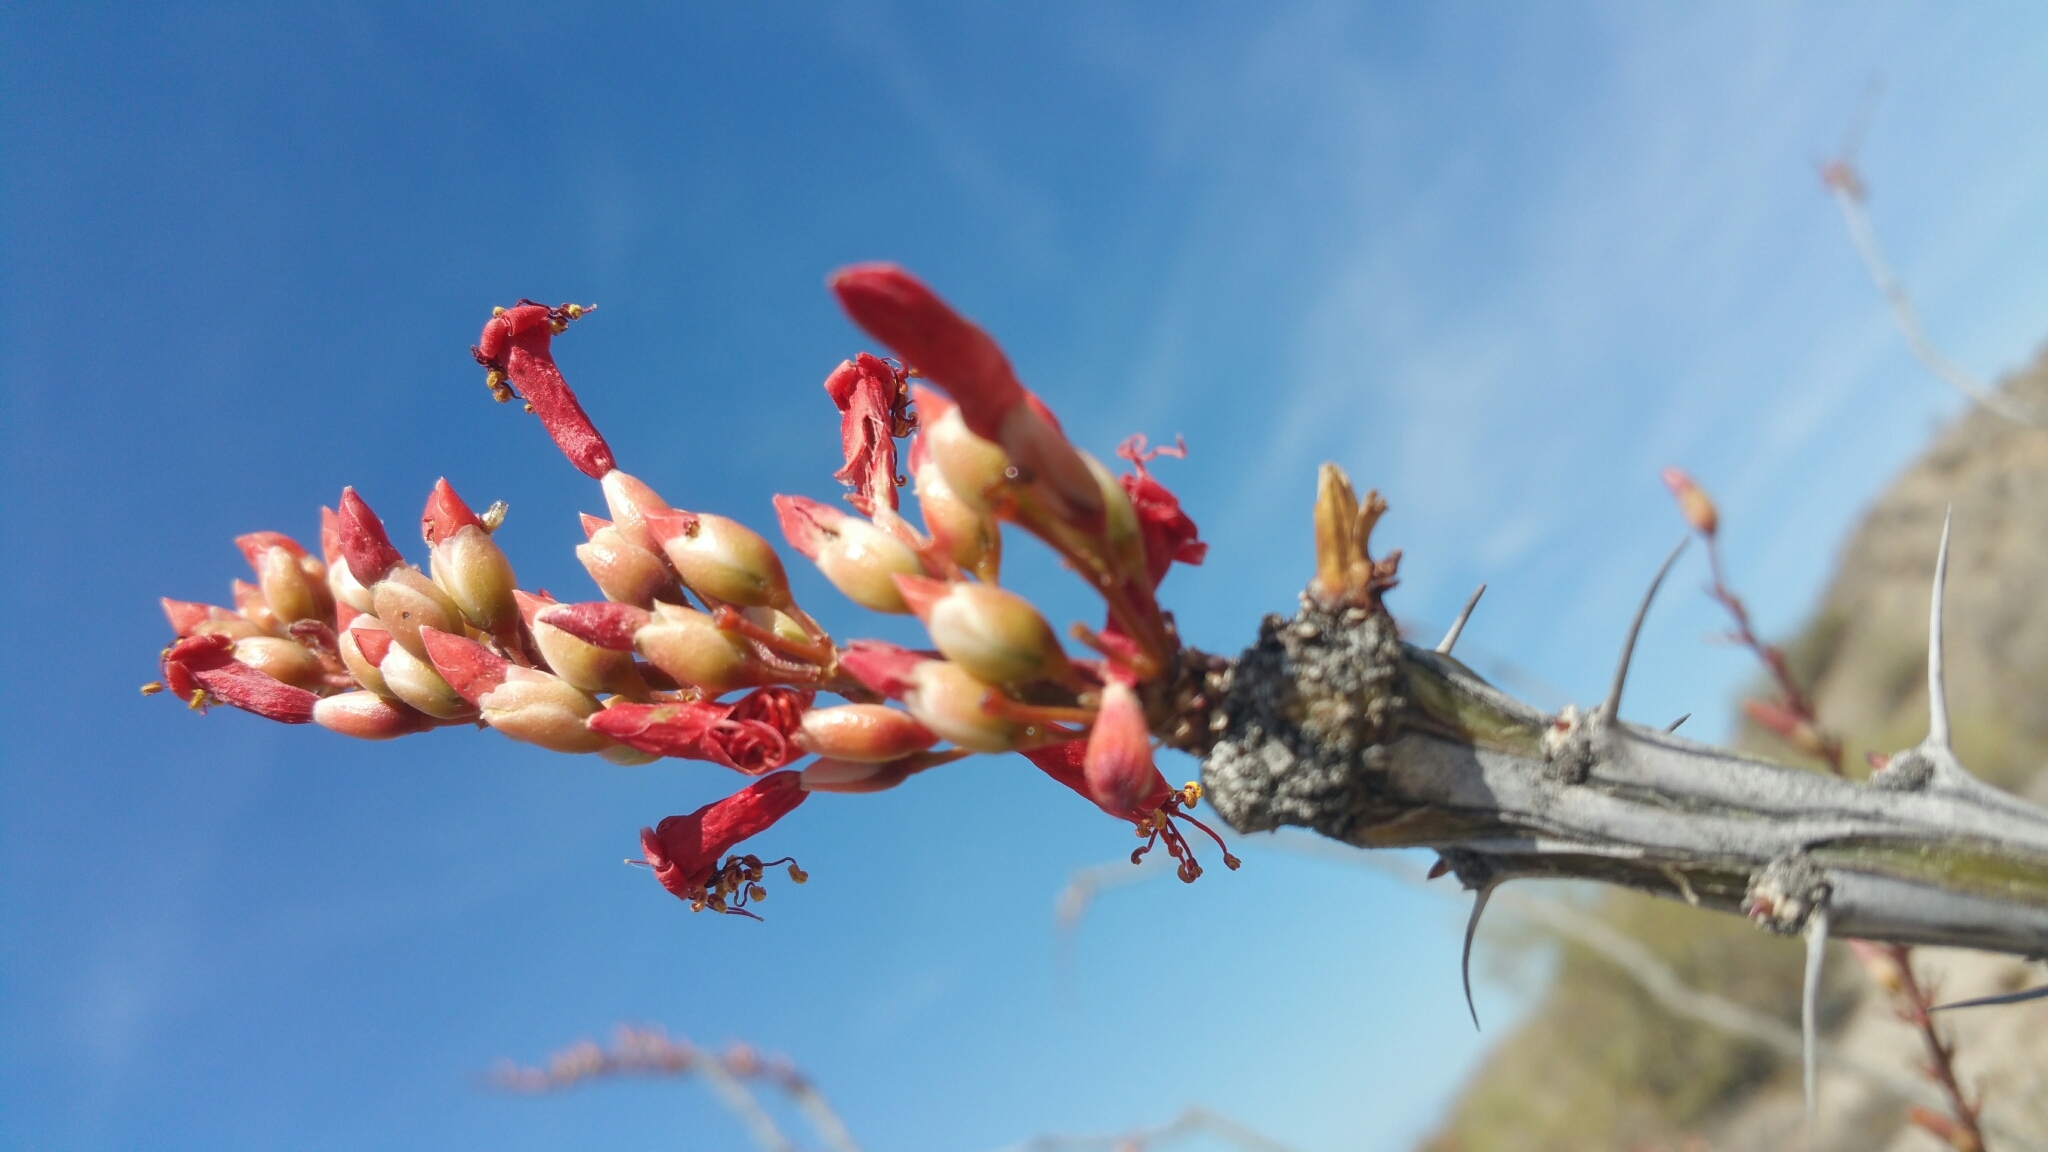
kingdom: Plantae
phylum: Tracheophyta
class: Magnoliopsida
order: Ericales
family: Fouquieriaceae
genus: Fouquieria
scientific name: Fouquieria splendens
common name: Vine-cactus
